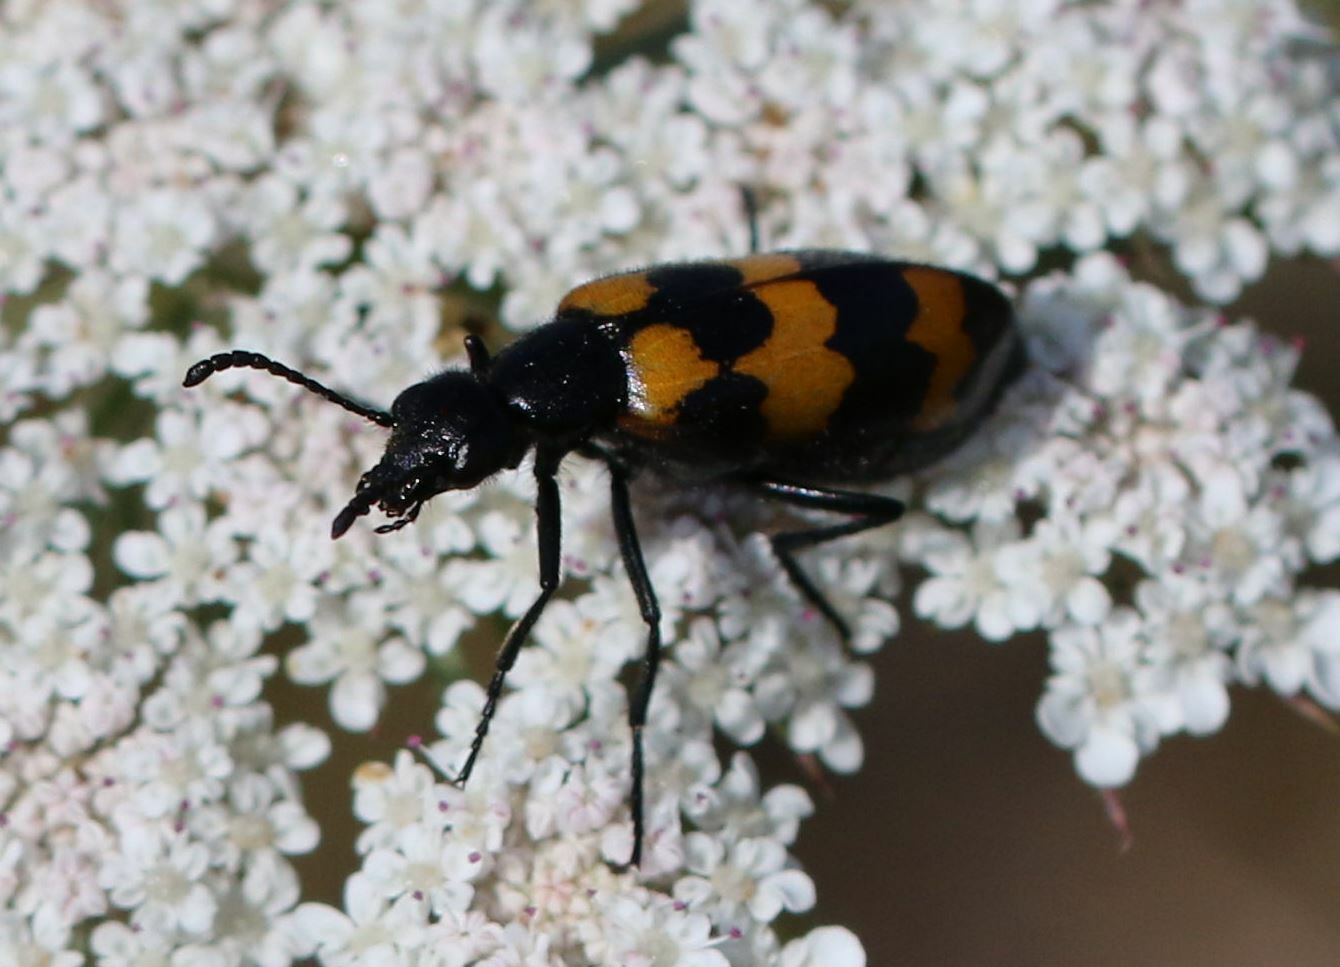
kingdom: Animalia
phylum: Arthropoda
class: Insecta
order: Coleoptera
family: Meloidae
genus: Mylabris
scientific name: Mylabris variabilis
